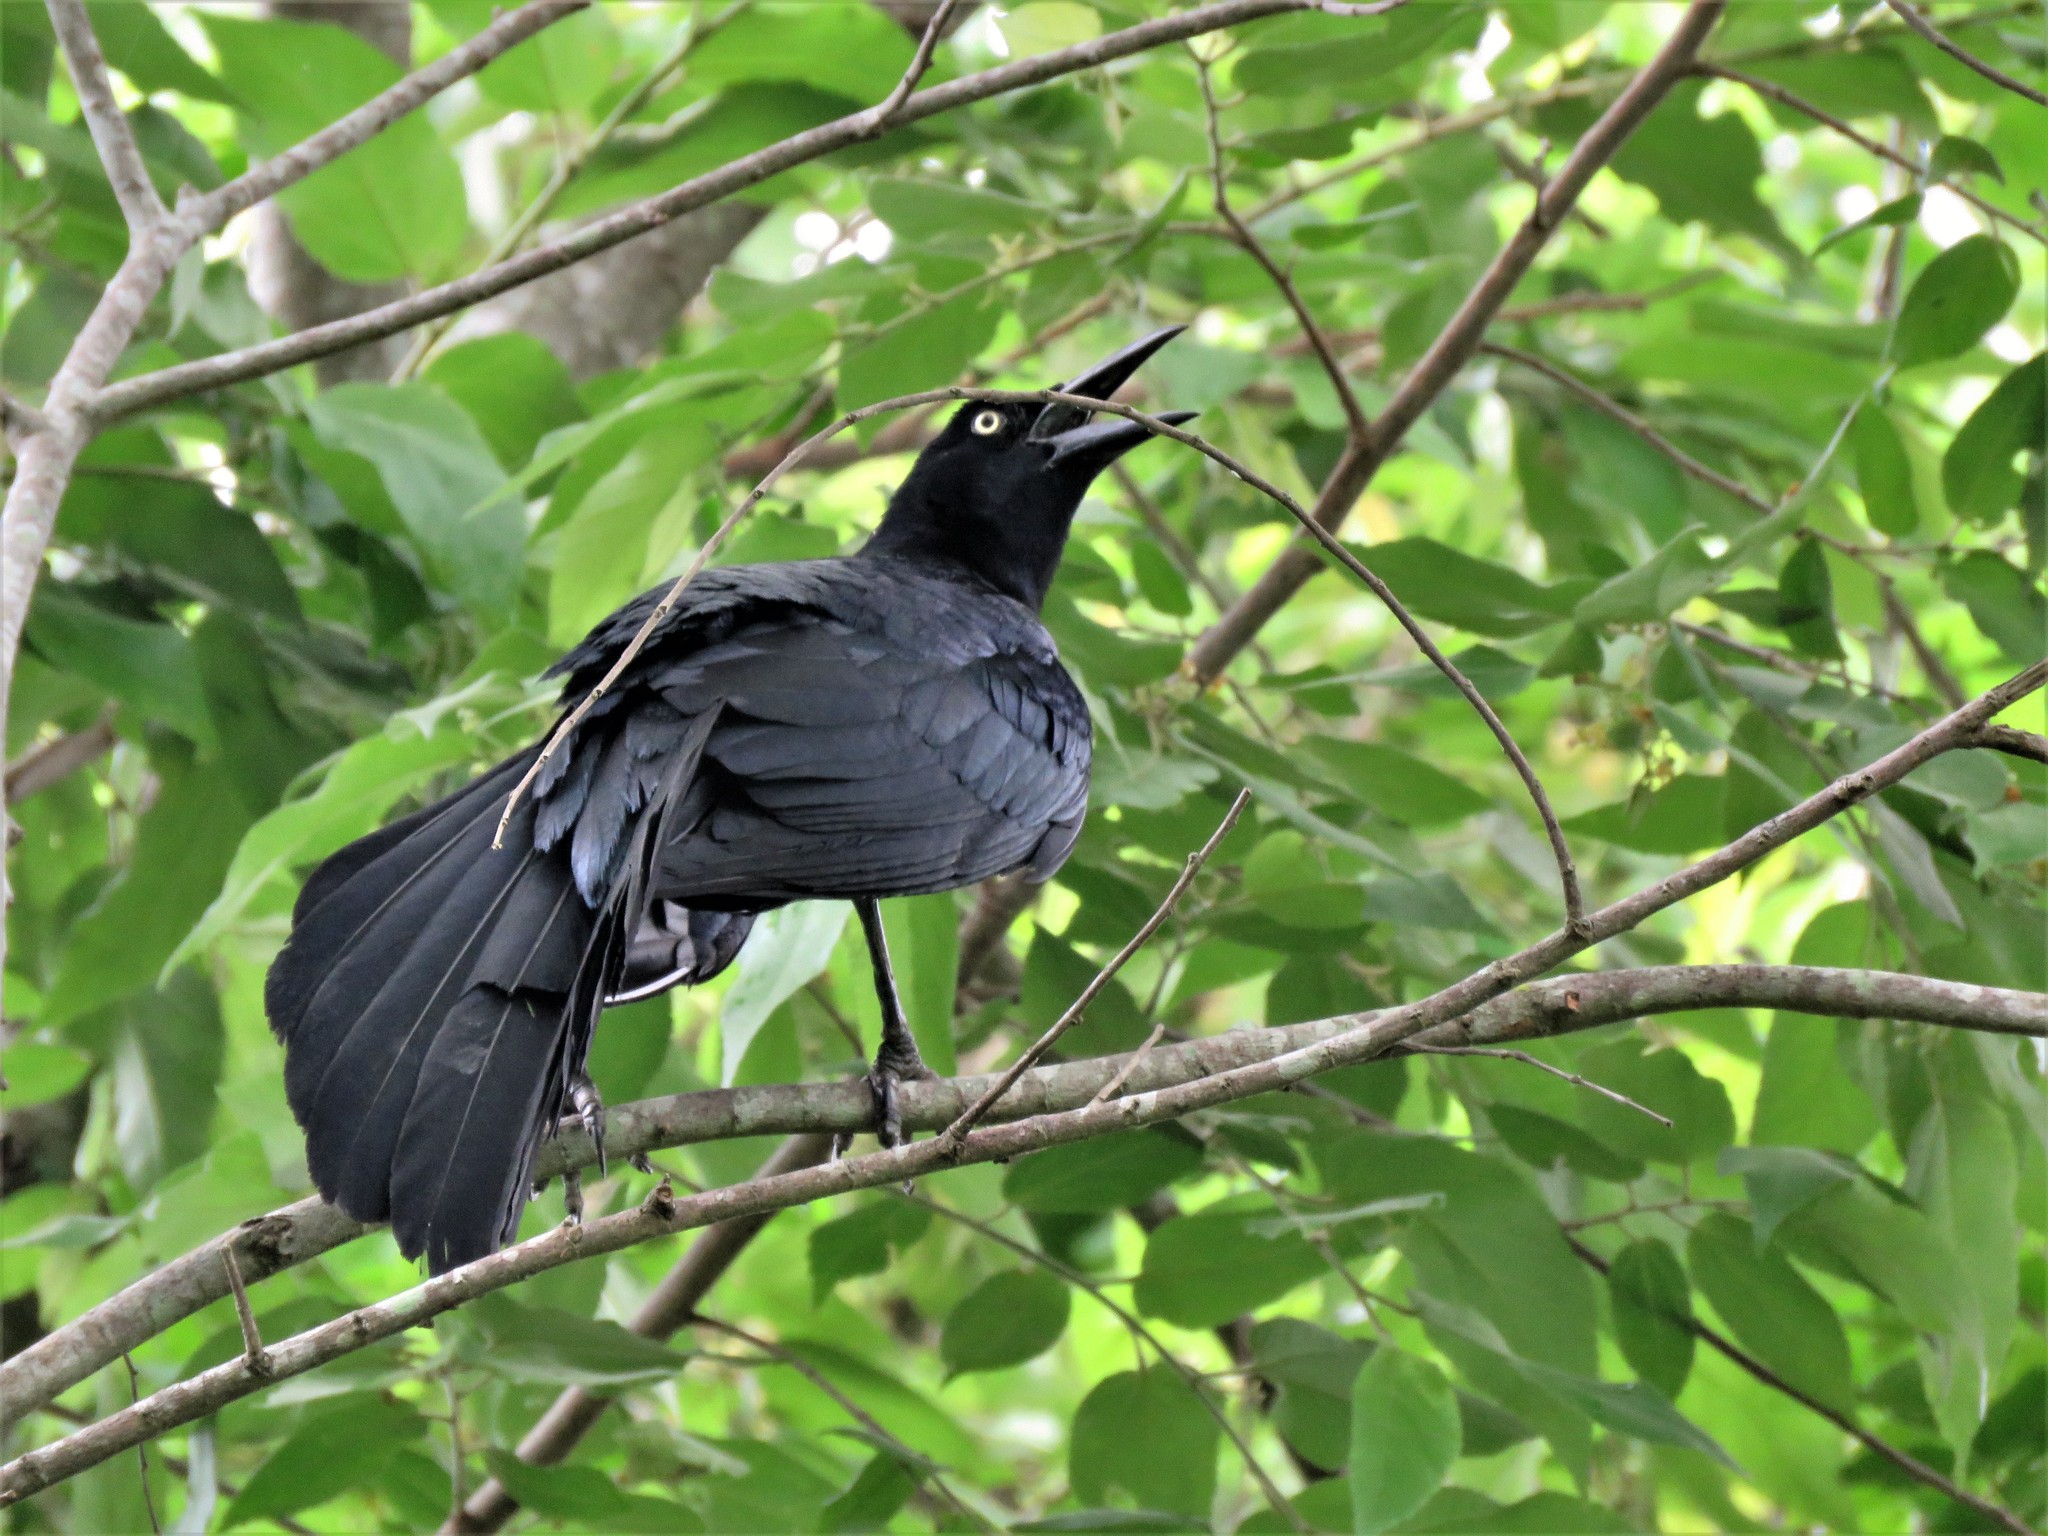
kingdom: Animalia
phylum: Chordata
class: Aves
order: Passeriformes
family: Icteridae
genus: Quiscalus
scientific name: Quiscalus mexicanus
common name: Great-tailed grackle
